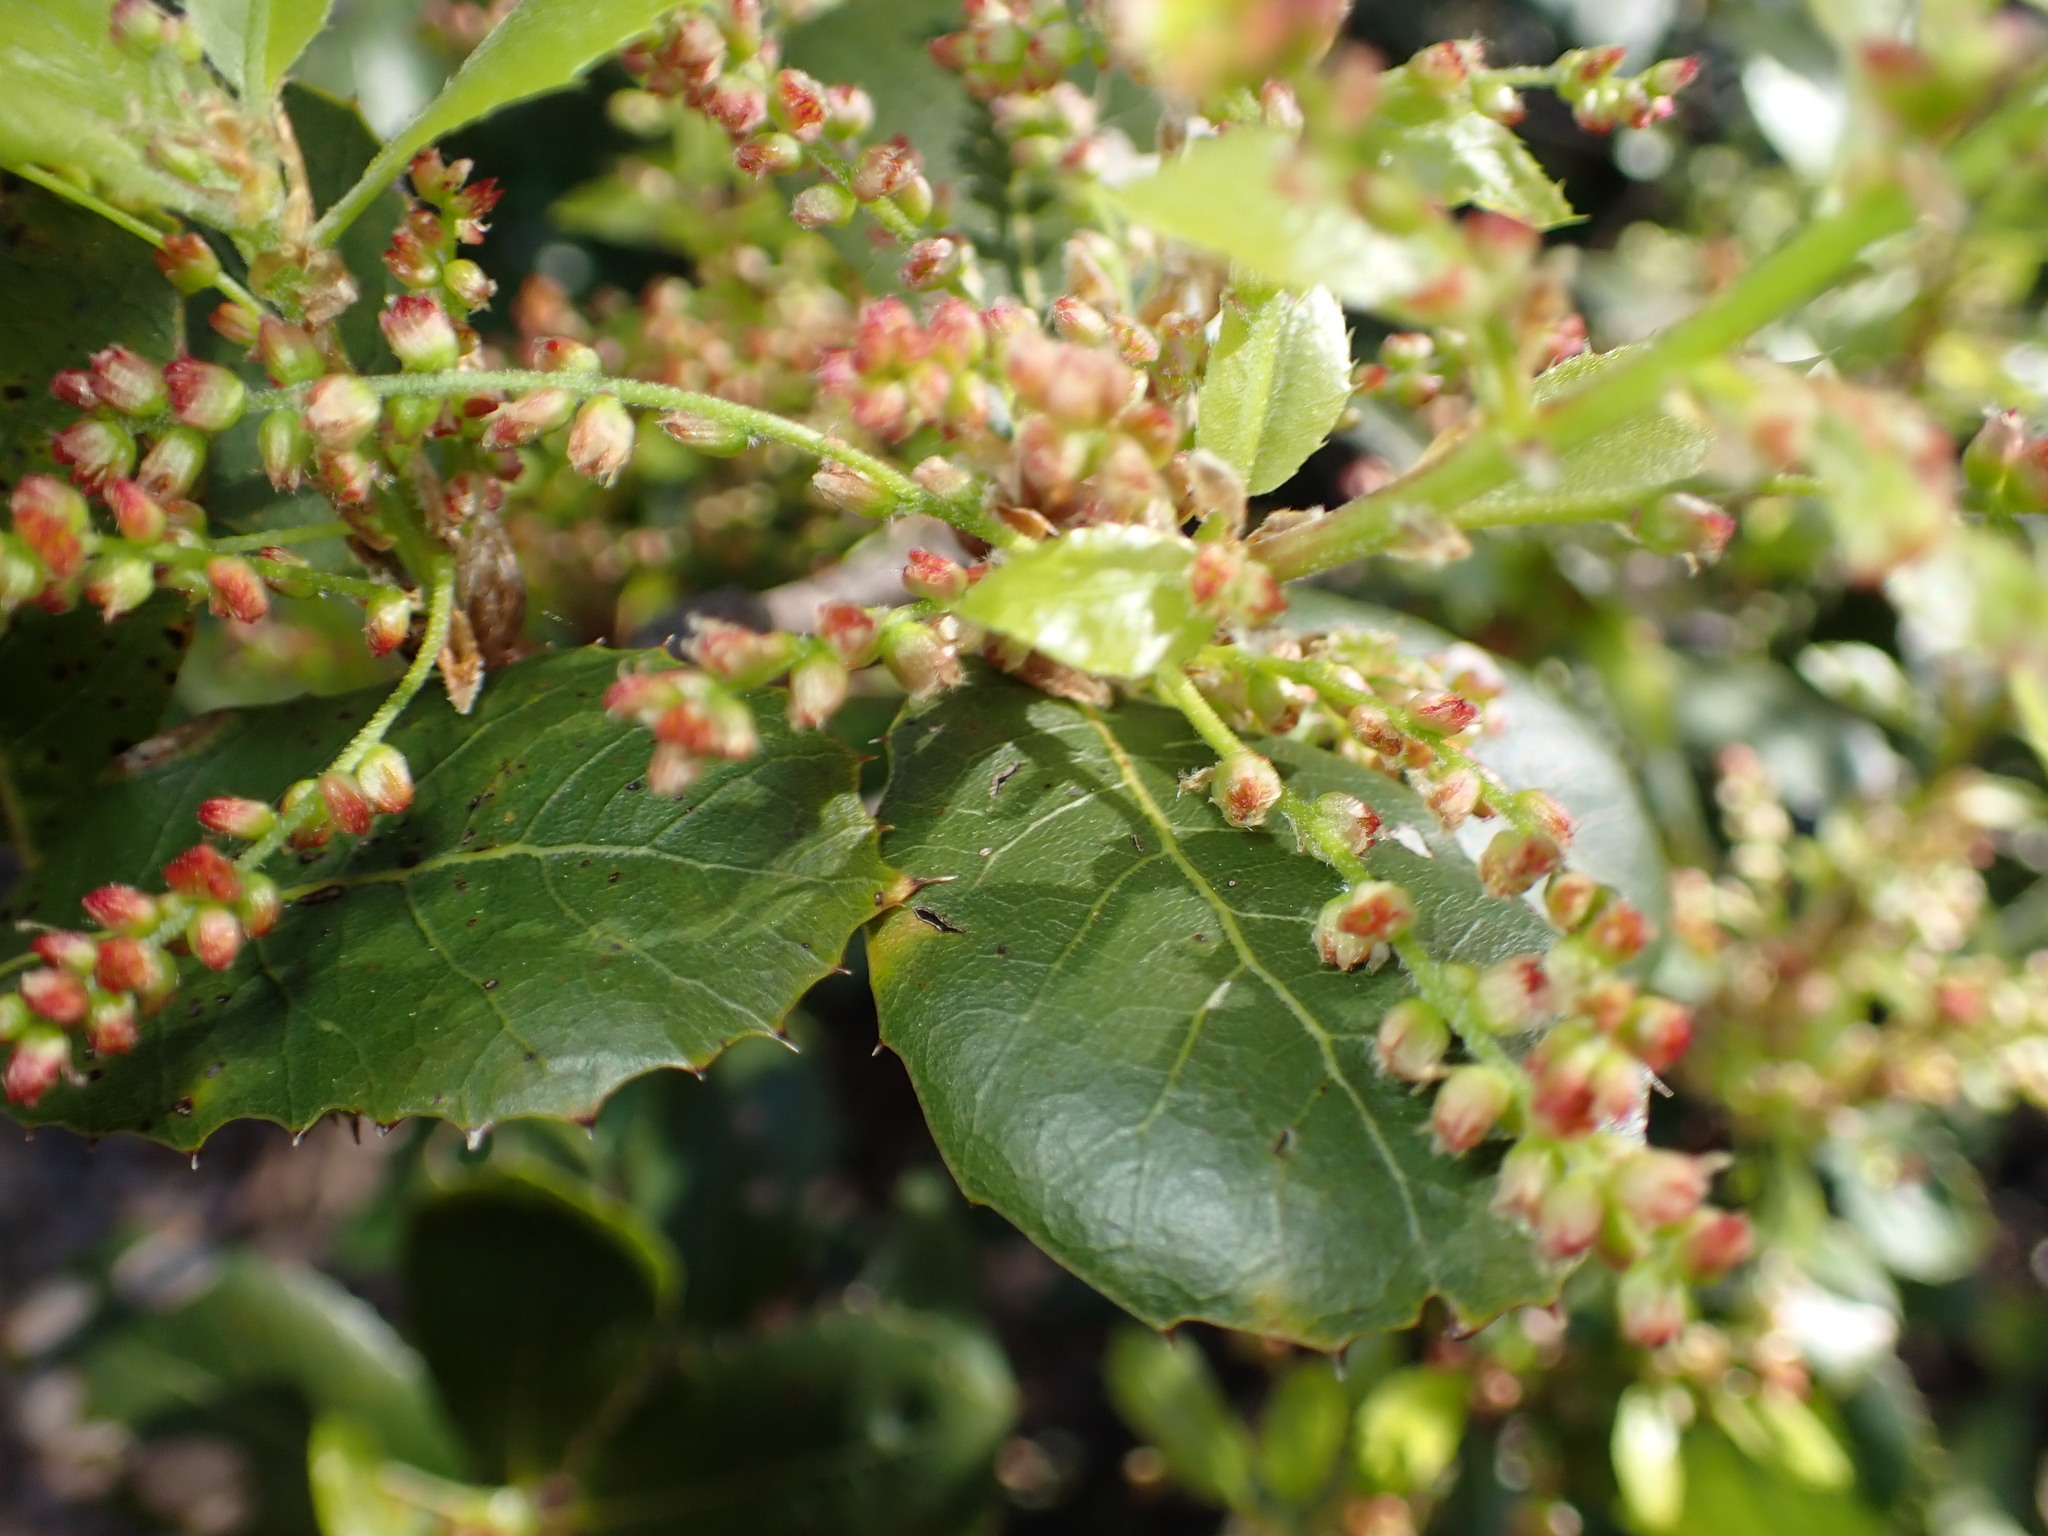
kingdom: Plantae
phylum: Tracheophyta
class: Magnoliopsida
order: Fagales
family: Fagaceae
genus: Quercus
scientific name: Quercus agrifolia
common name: California live oak
